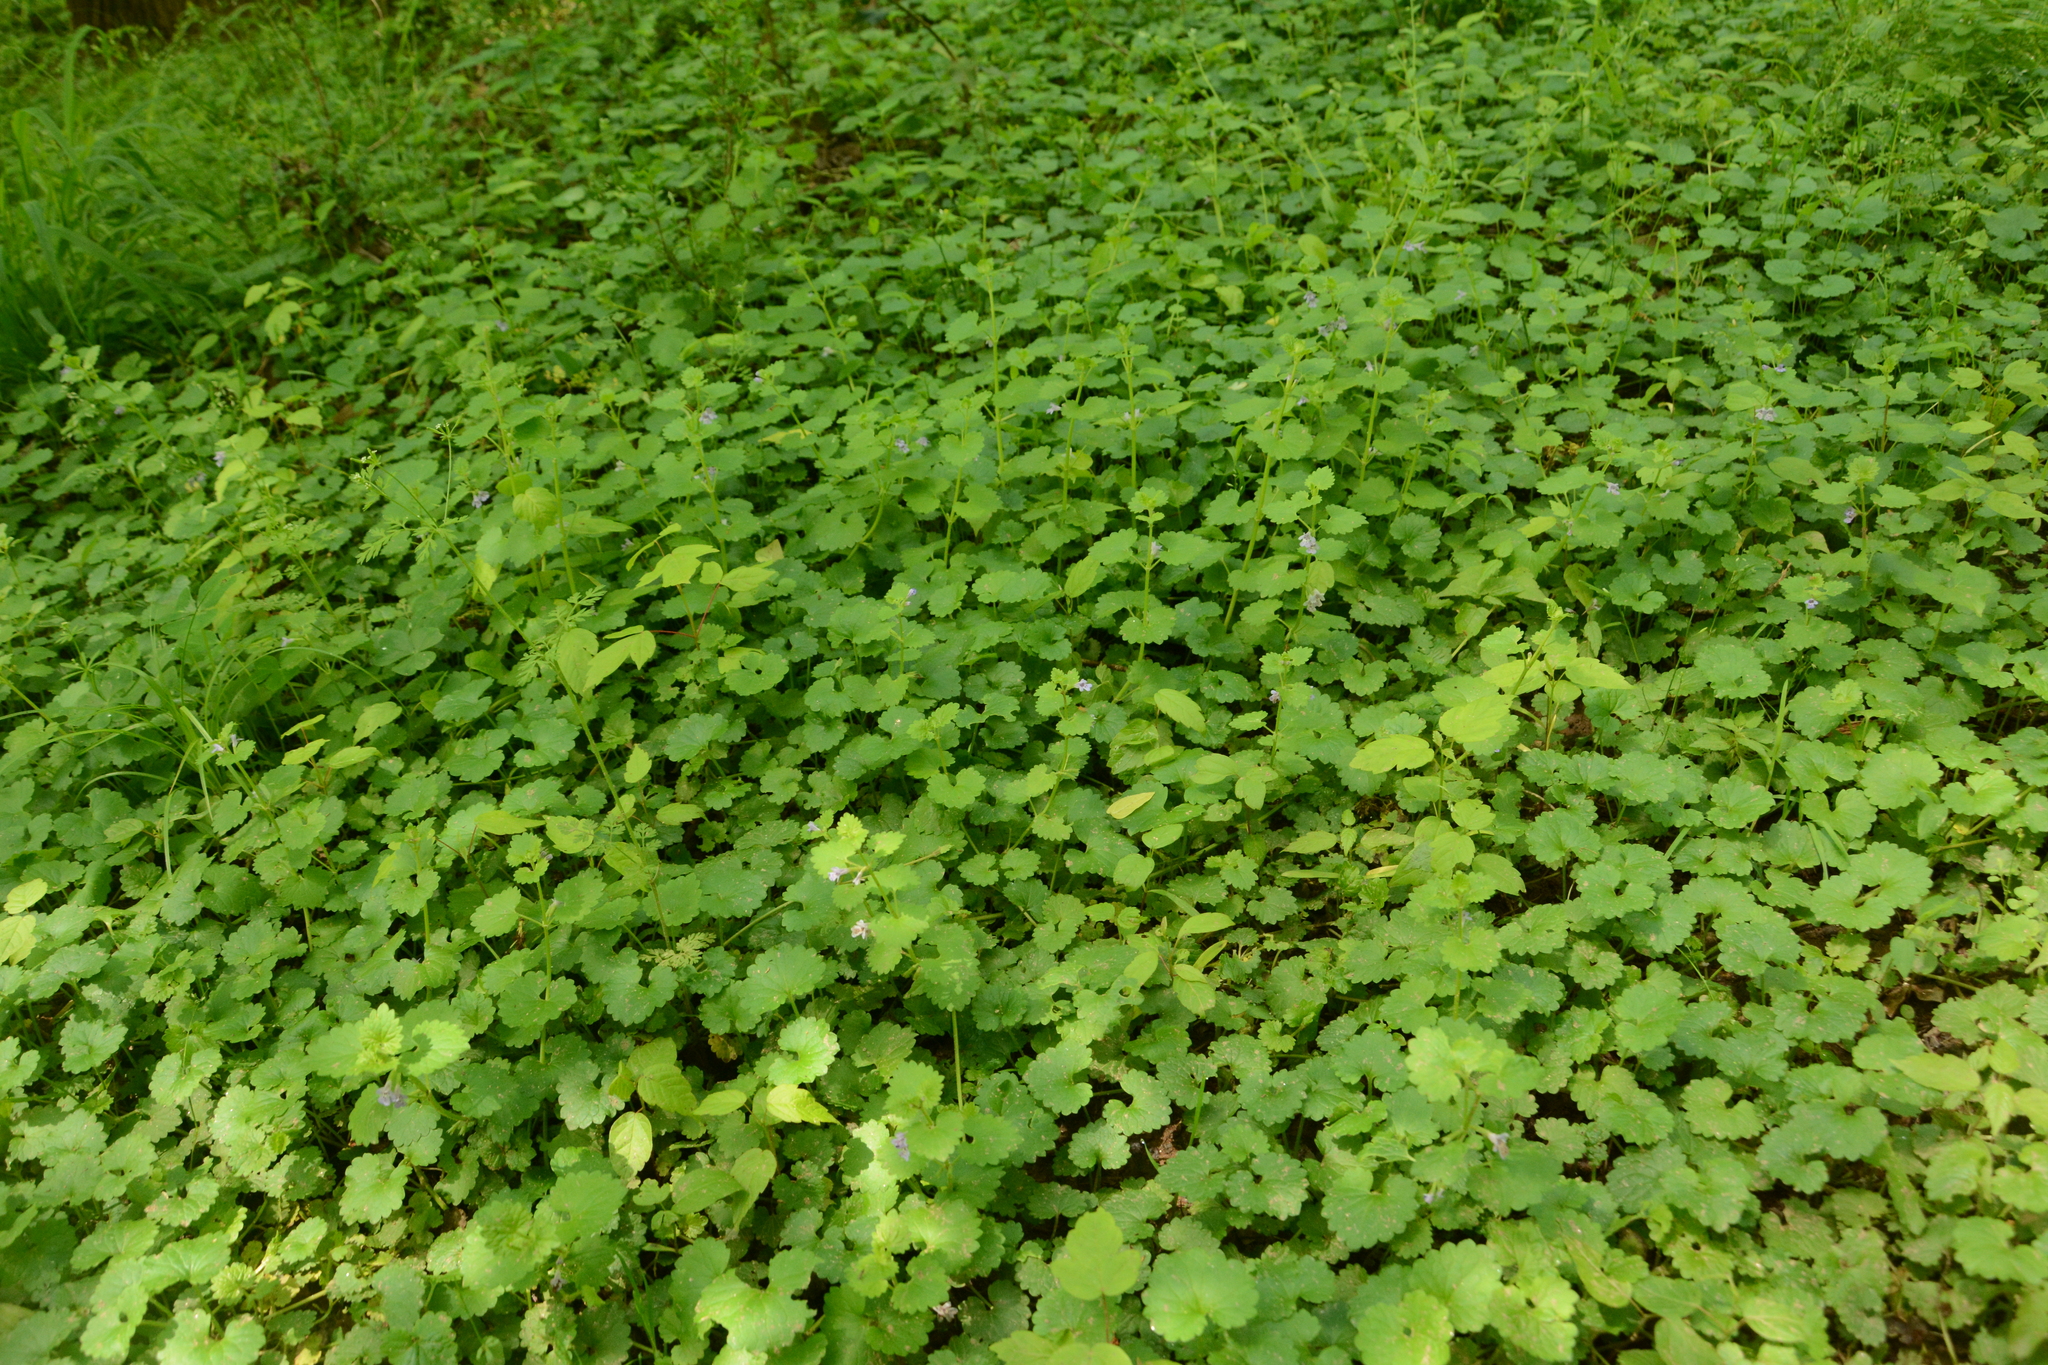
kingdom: Plantae
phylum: Tracheophyta
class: Magnoliopsida
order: Lamiales
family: Lamiaceae
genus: Glechoma
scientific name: Glechoma hederacea
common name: Ground ivy
